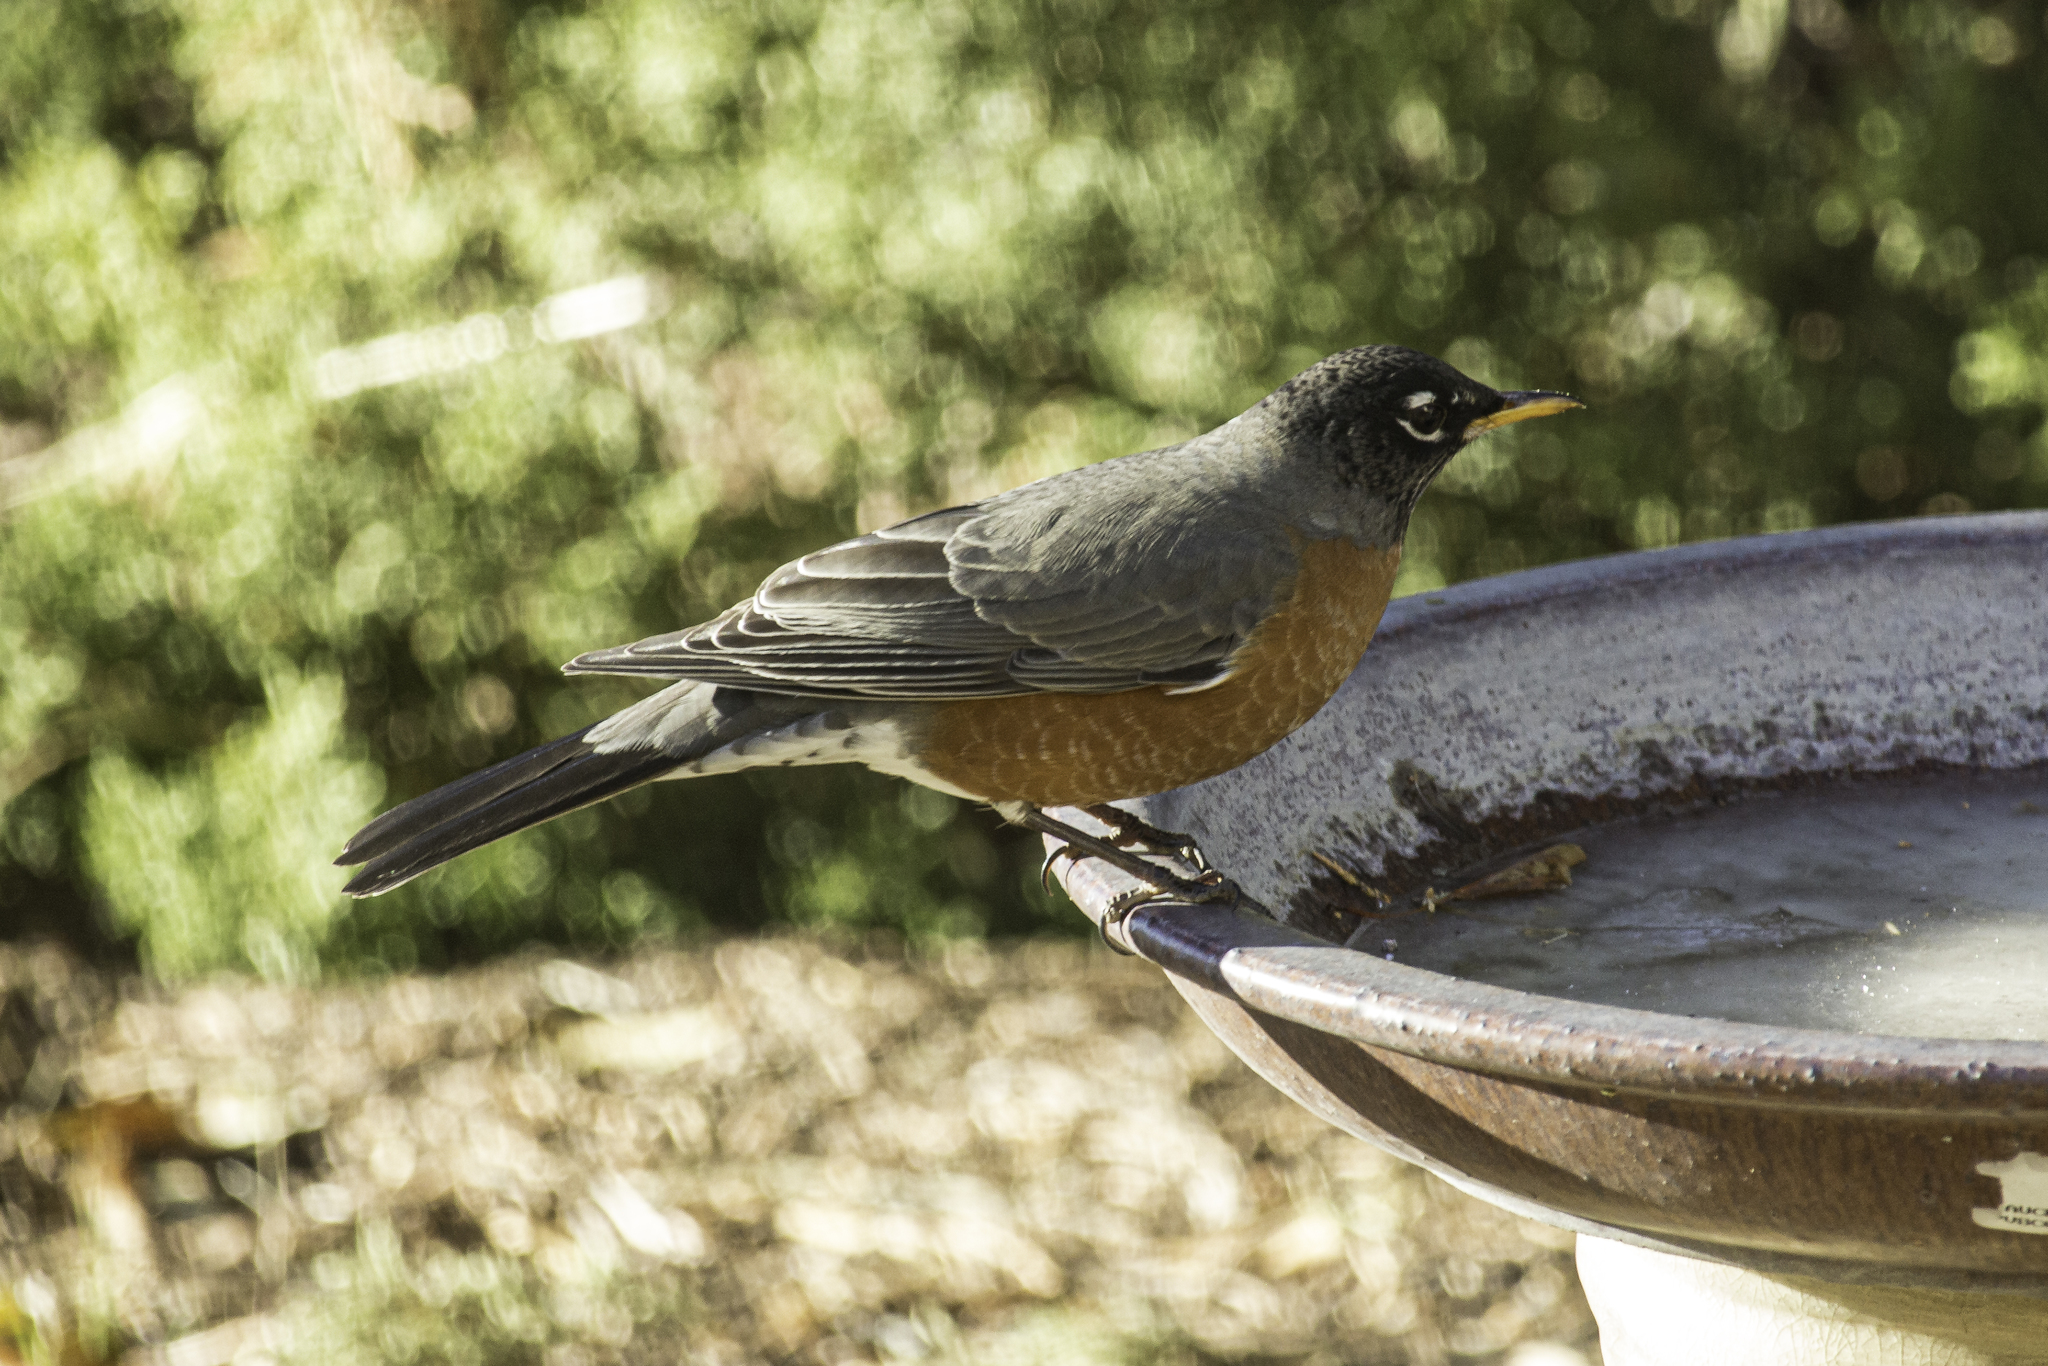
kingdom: Animalia
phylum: Chordata
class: Aves
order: Passeriformes
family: Turdidae
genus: Turdus
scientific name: Turdus migratorius
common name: American robin
